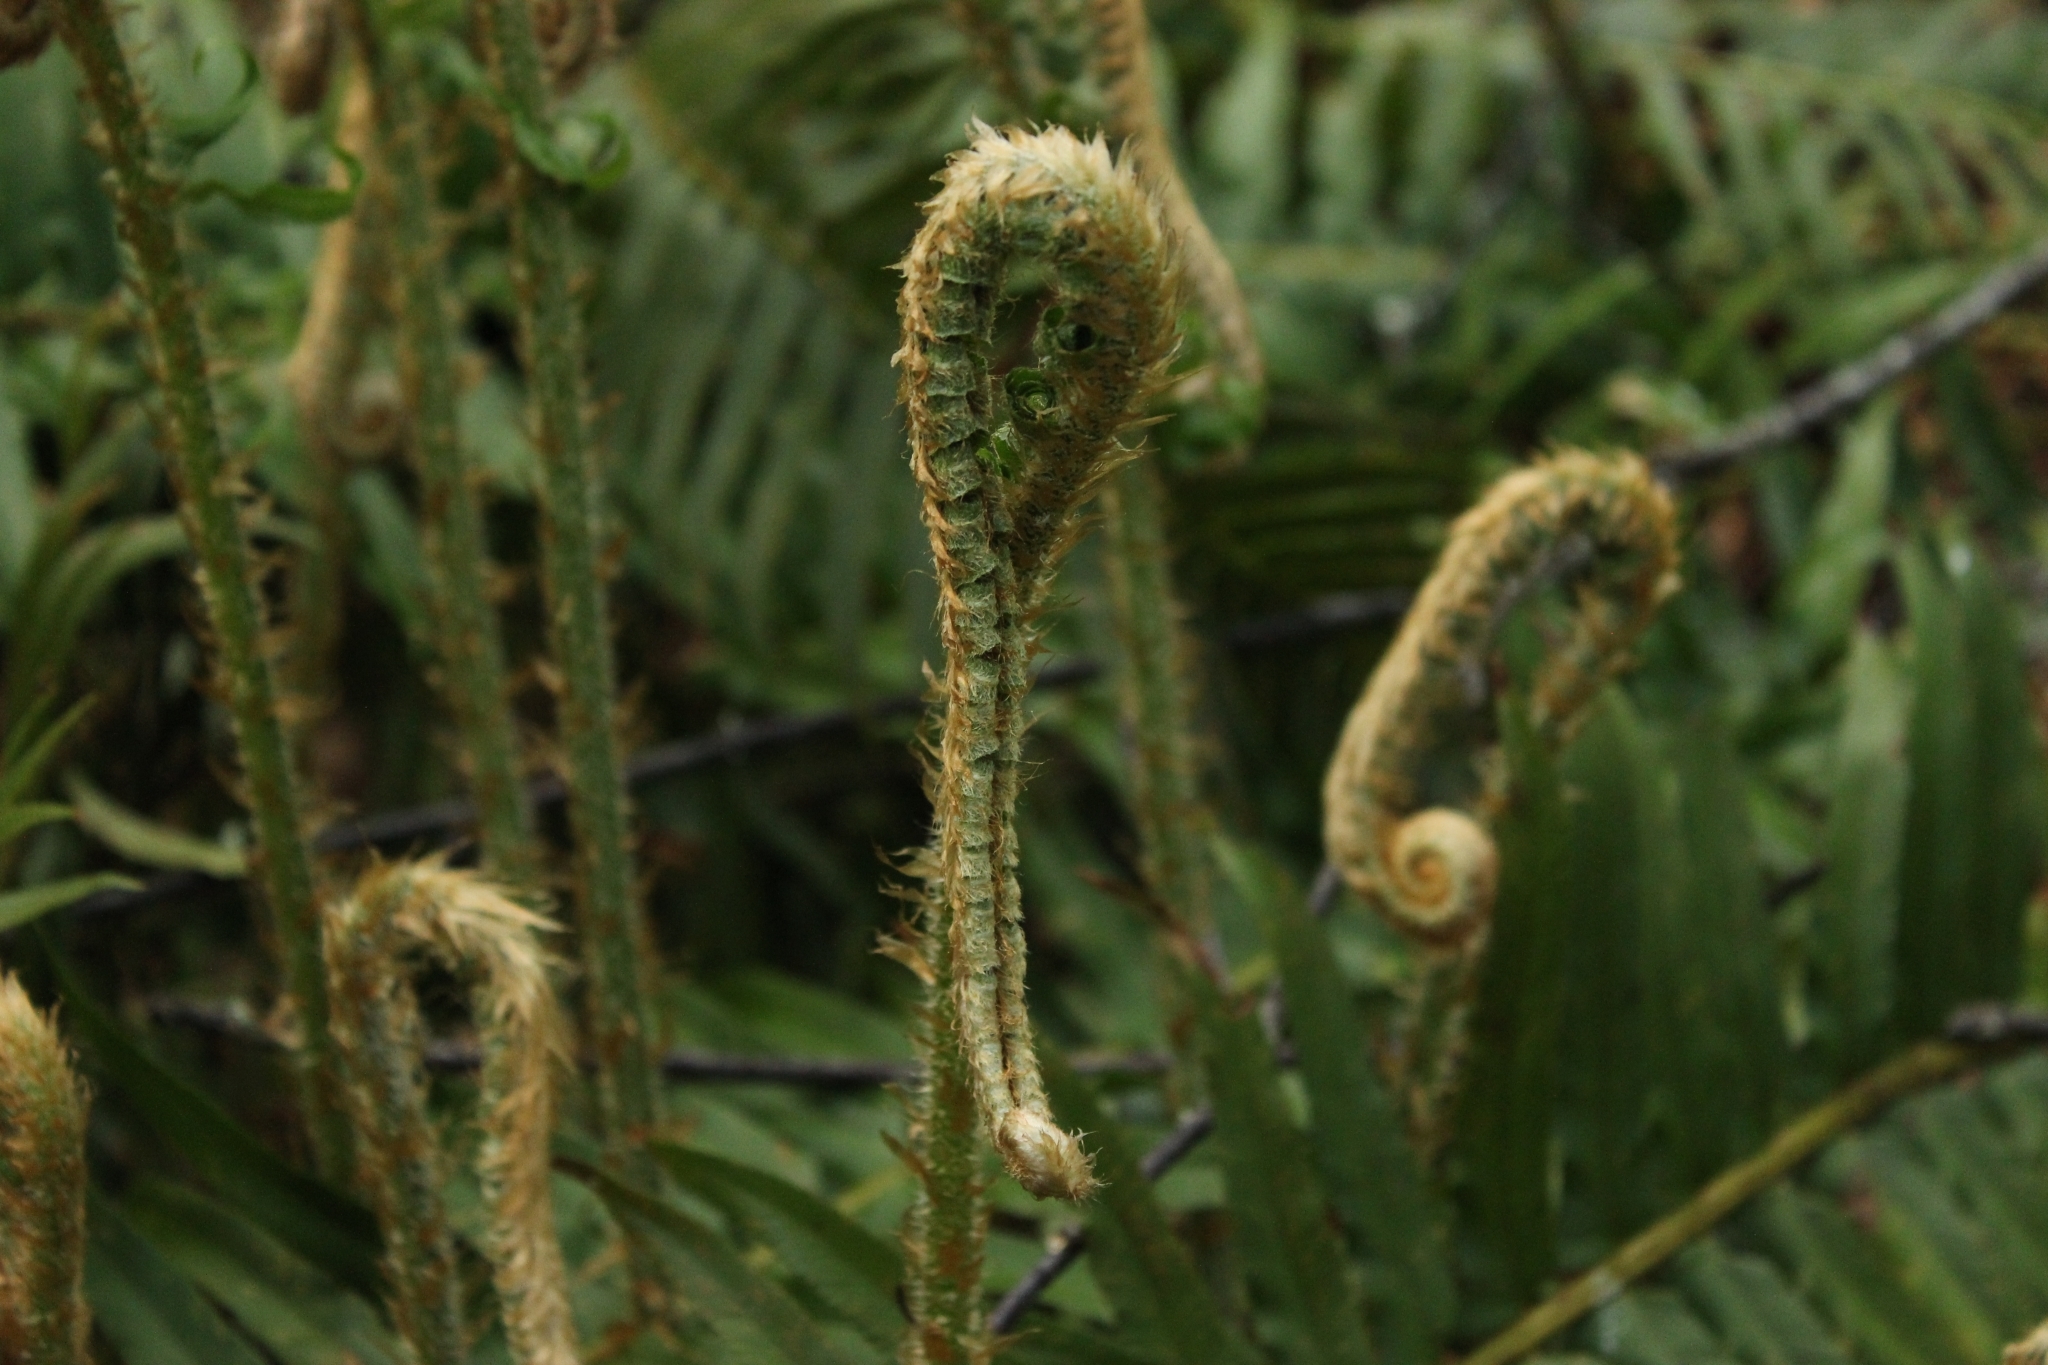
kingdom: Plantae
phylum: Tracheophyta
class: Polypodiopsida
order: Polypodiales
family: Dryopteridaceae
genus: Polystichum
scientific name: Polystichum munitum
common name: Western sword-fern
